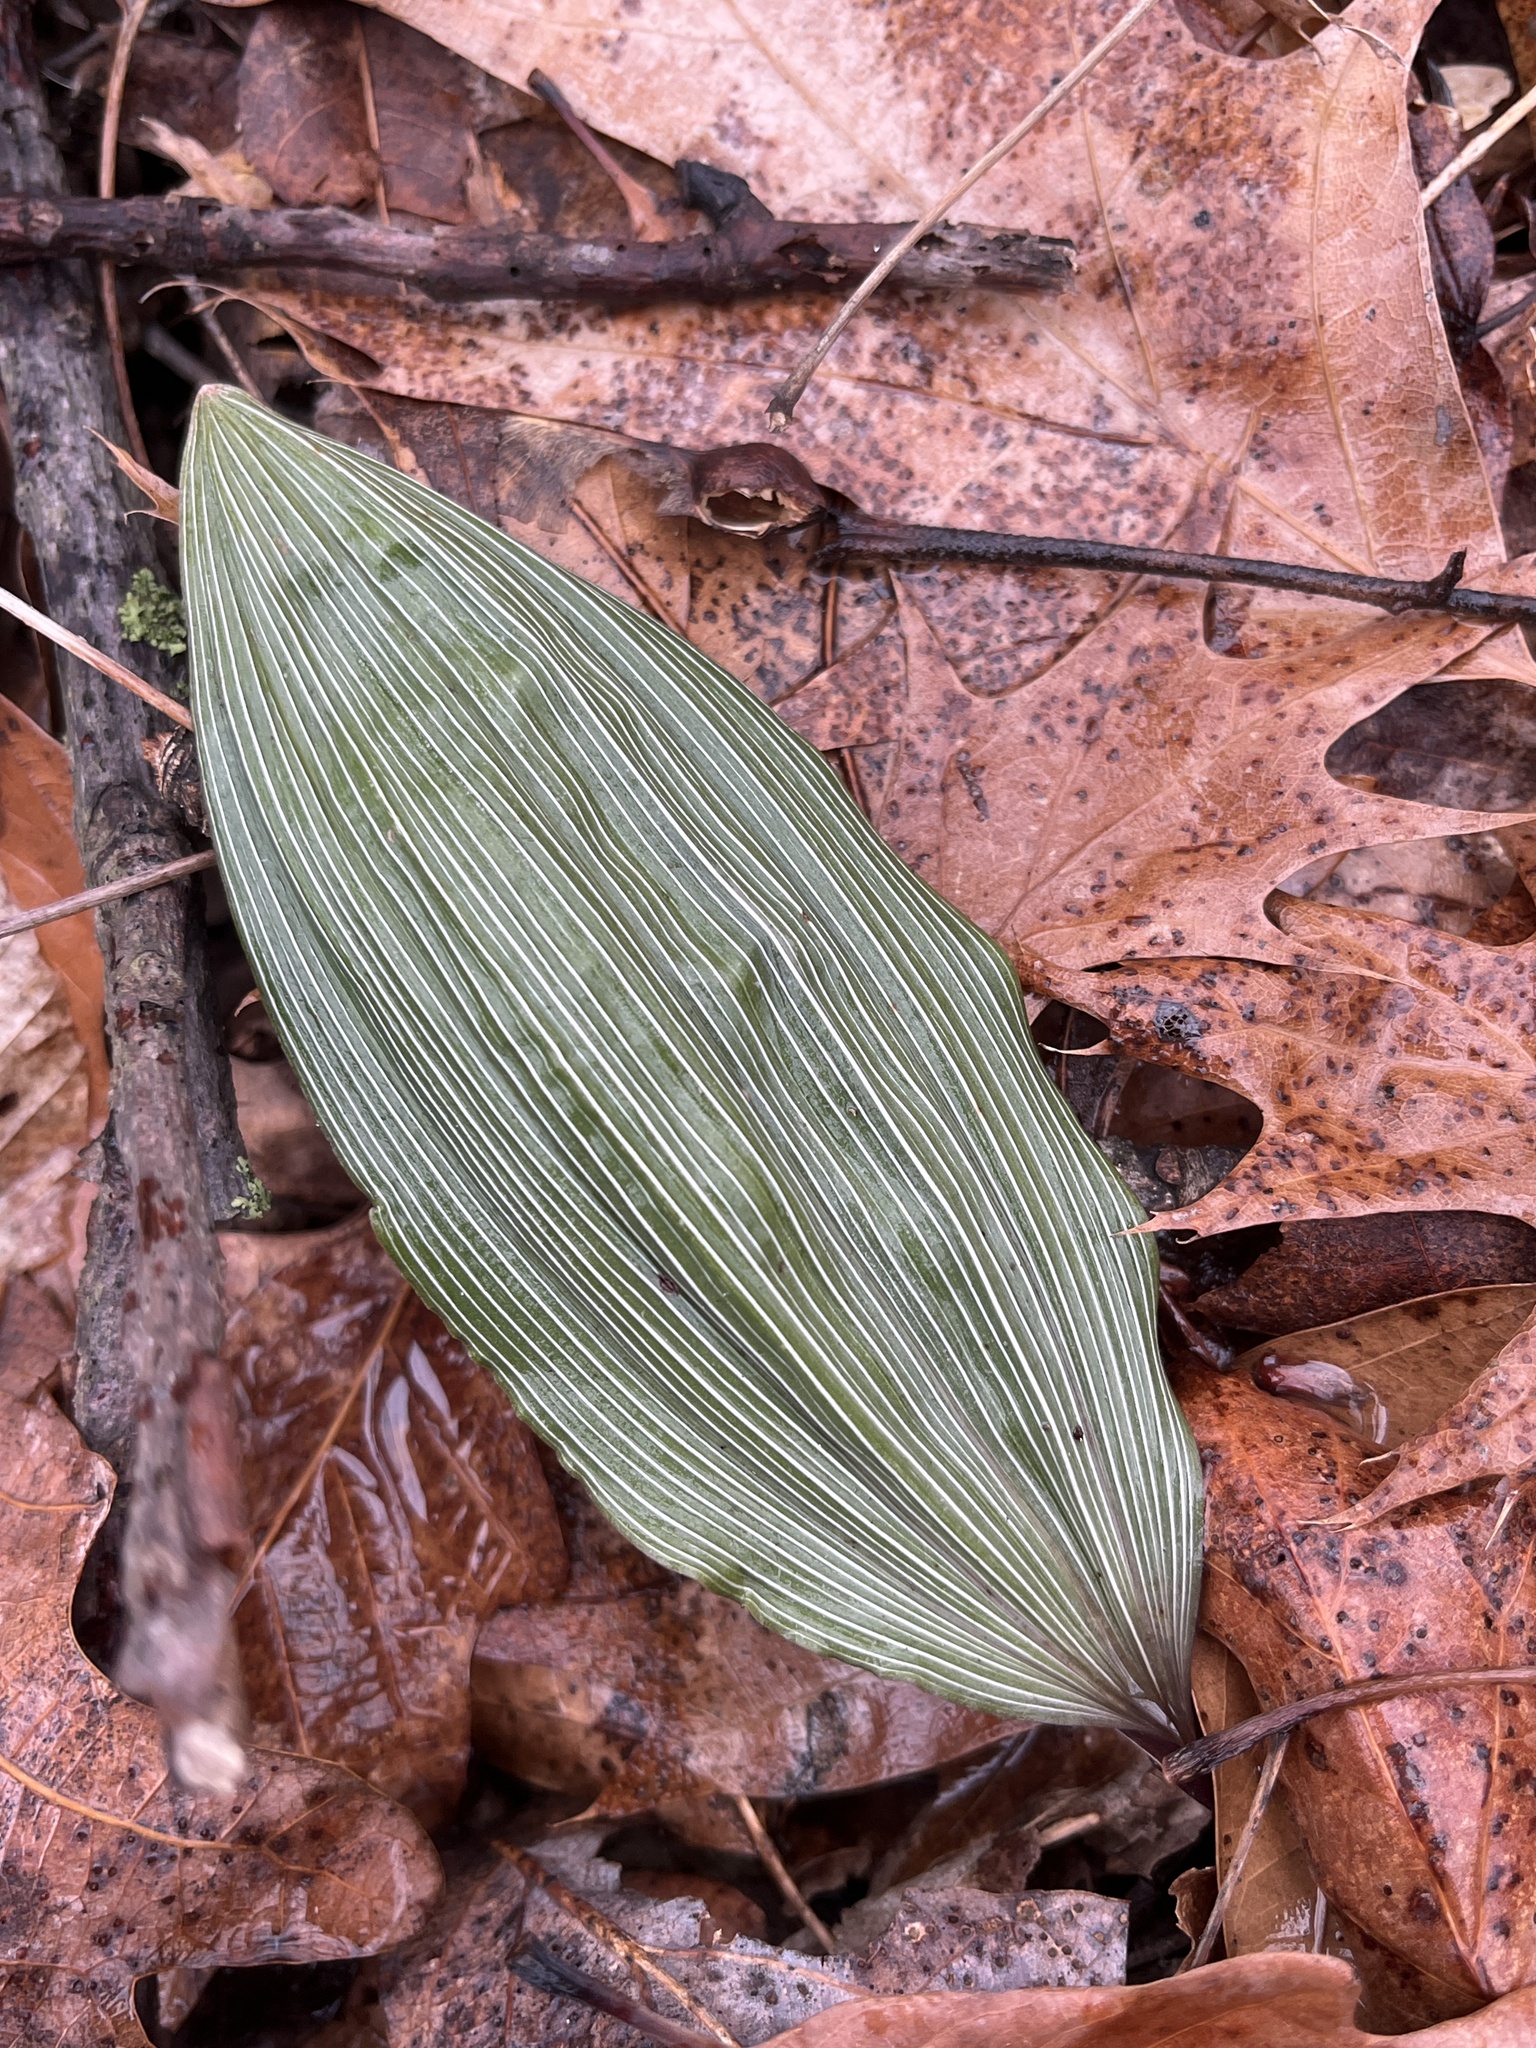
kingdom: Plantae
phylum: Tracheophyta
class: Liliopsida
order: Asparagales
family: Orchidaceae
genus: Aplectrum
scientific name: Aplectrum hyemale
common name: Adam-and-eve
